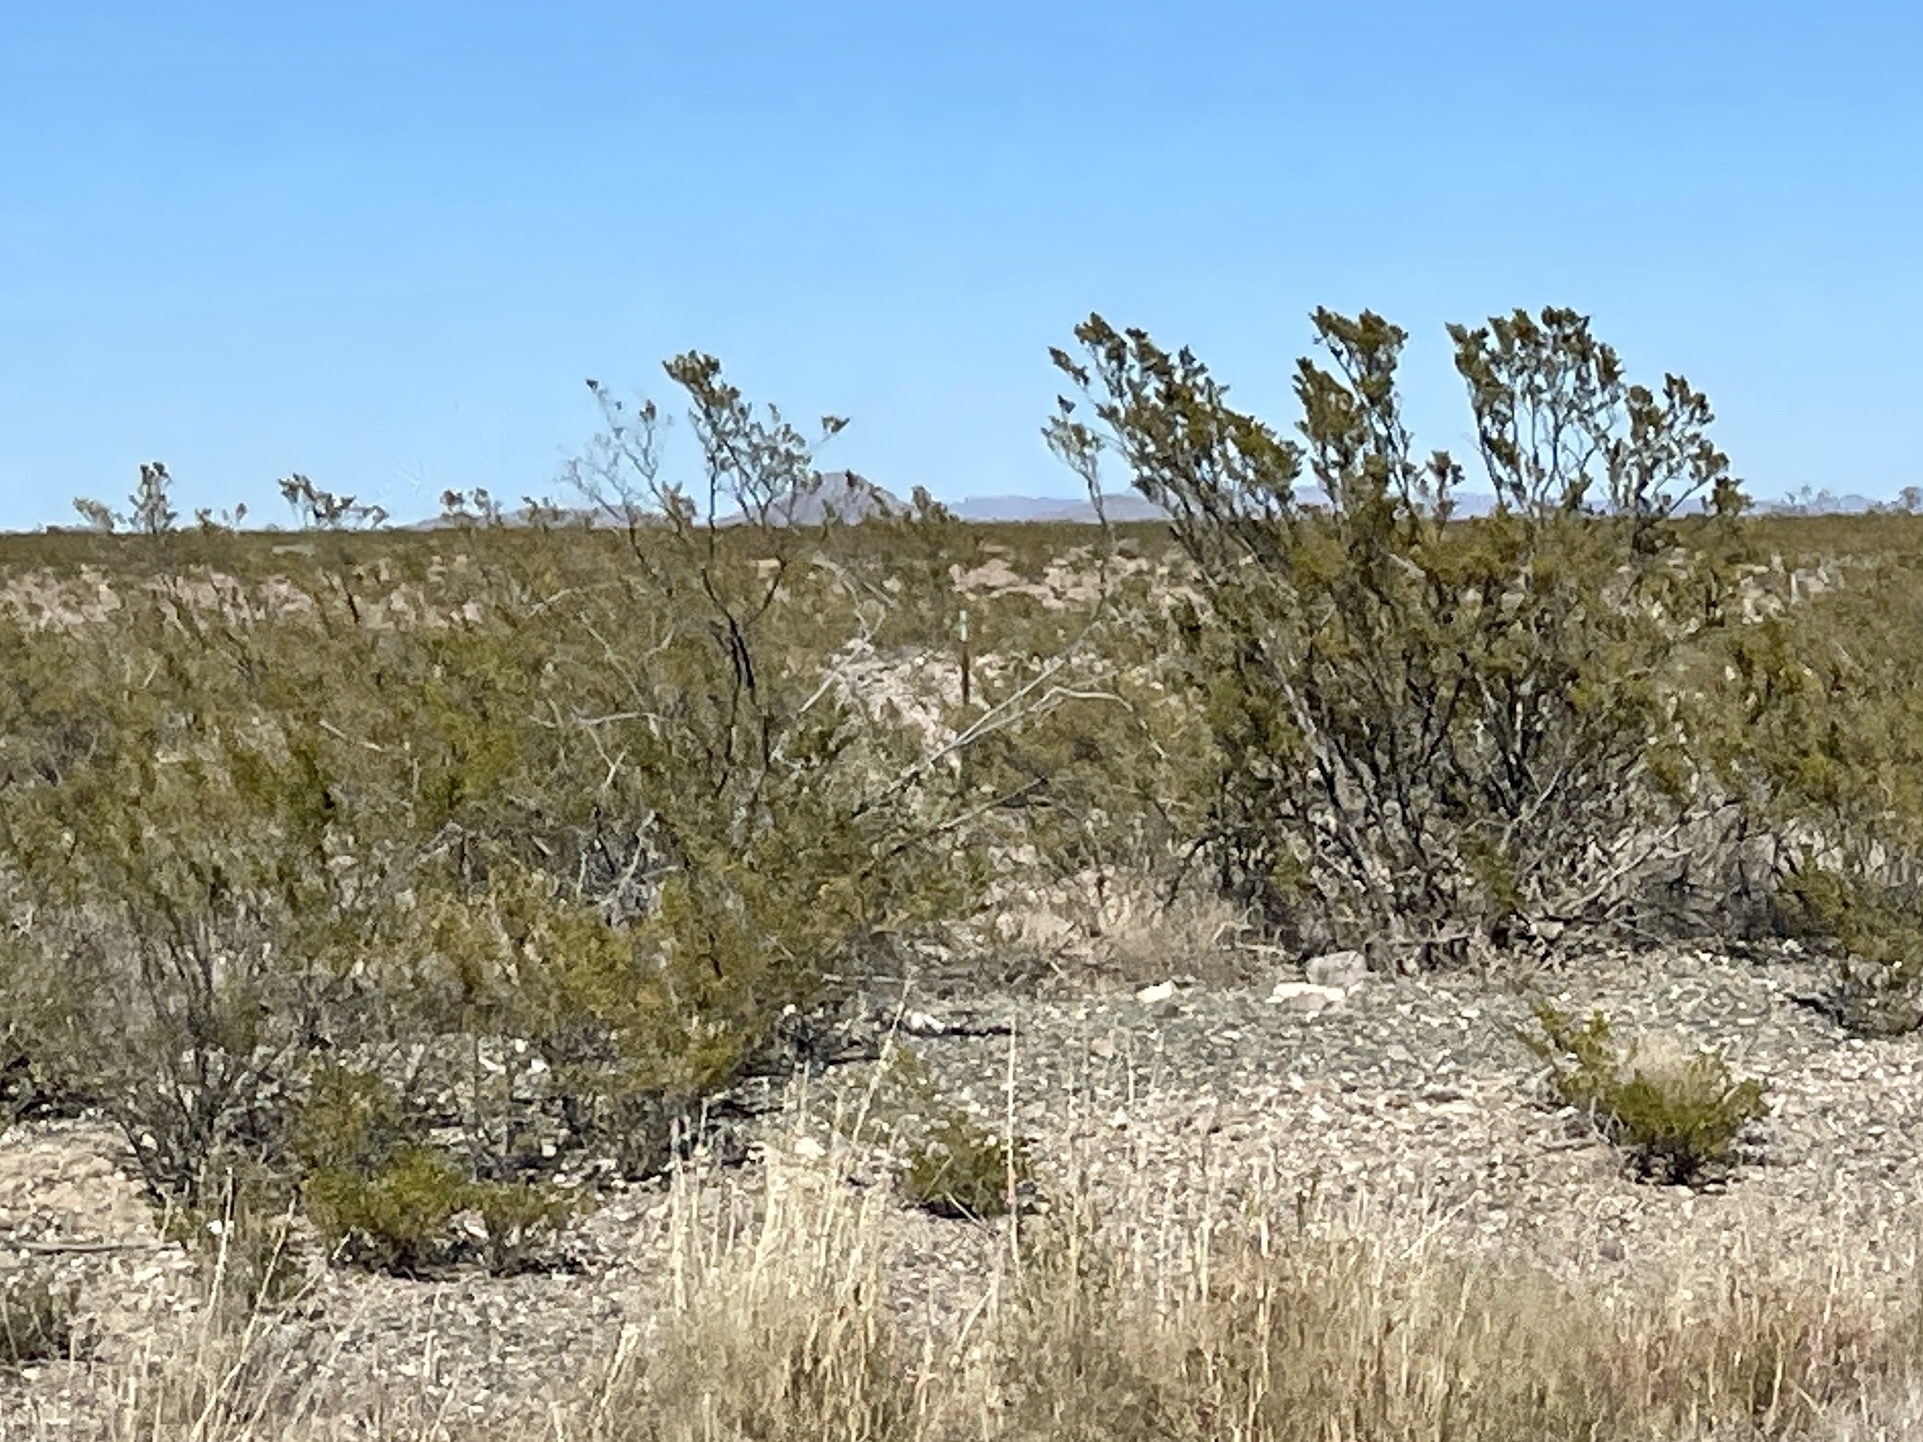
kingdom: Plantae
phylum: Tracheophyta
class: Magnoliopsida
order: Zygophyllales
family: Zygophyllaceae
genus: Larrea
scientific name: Larrea tridentata
